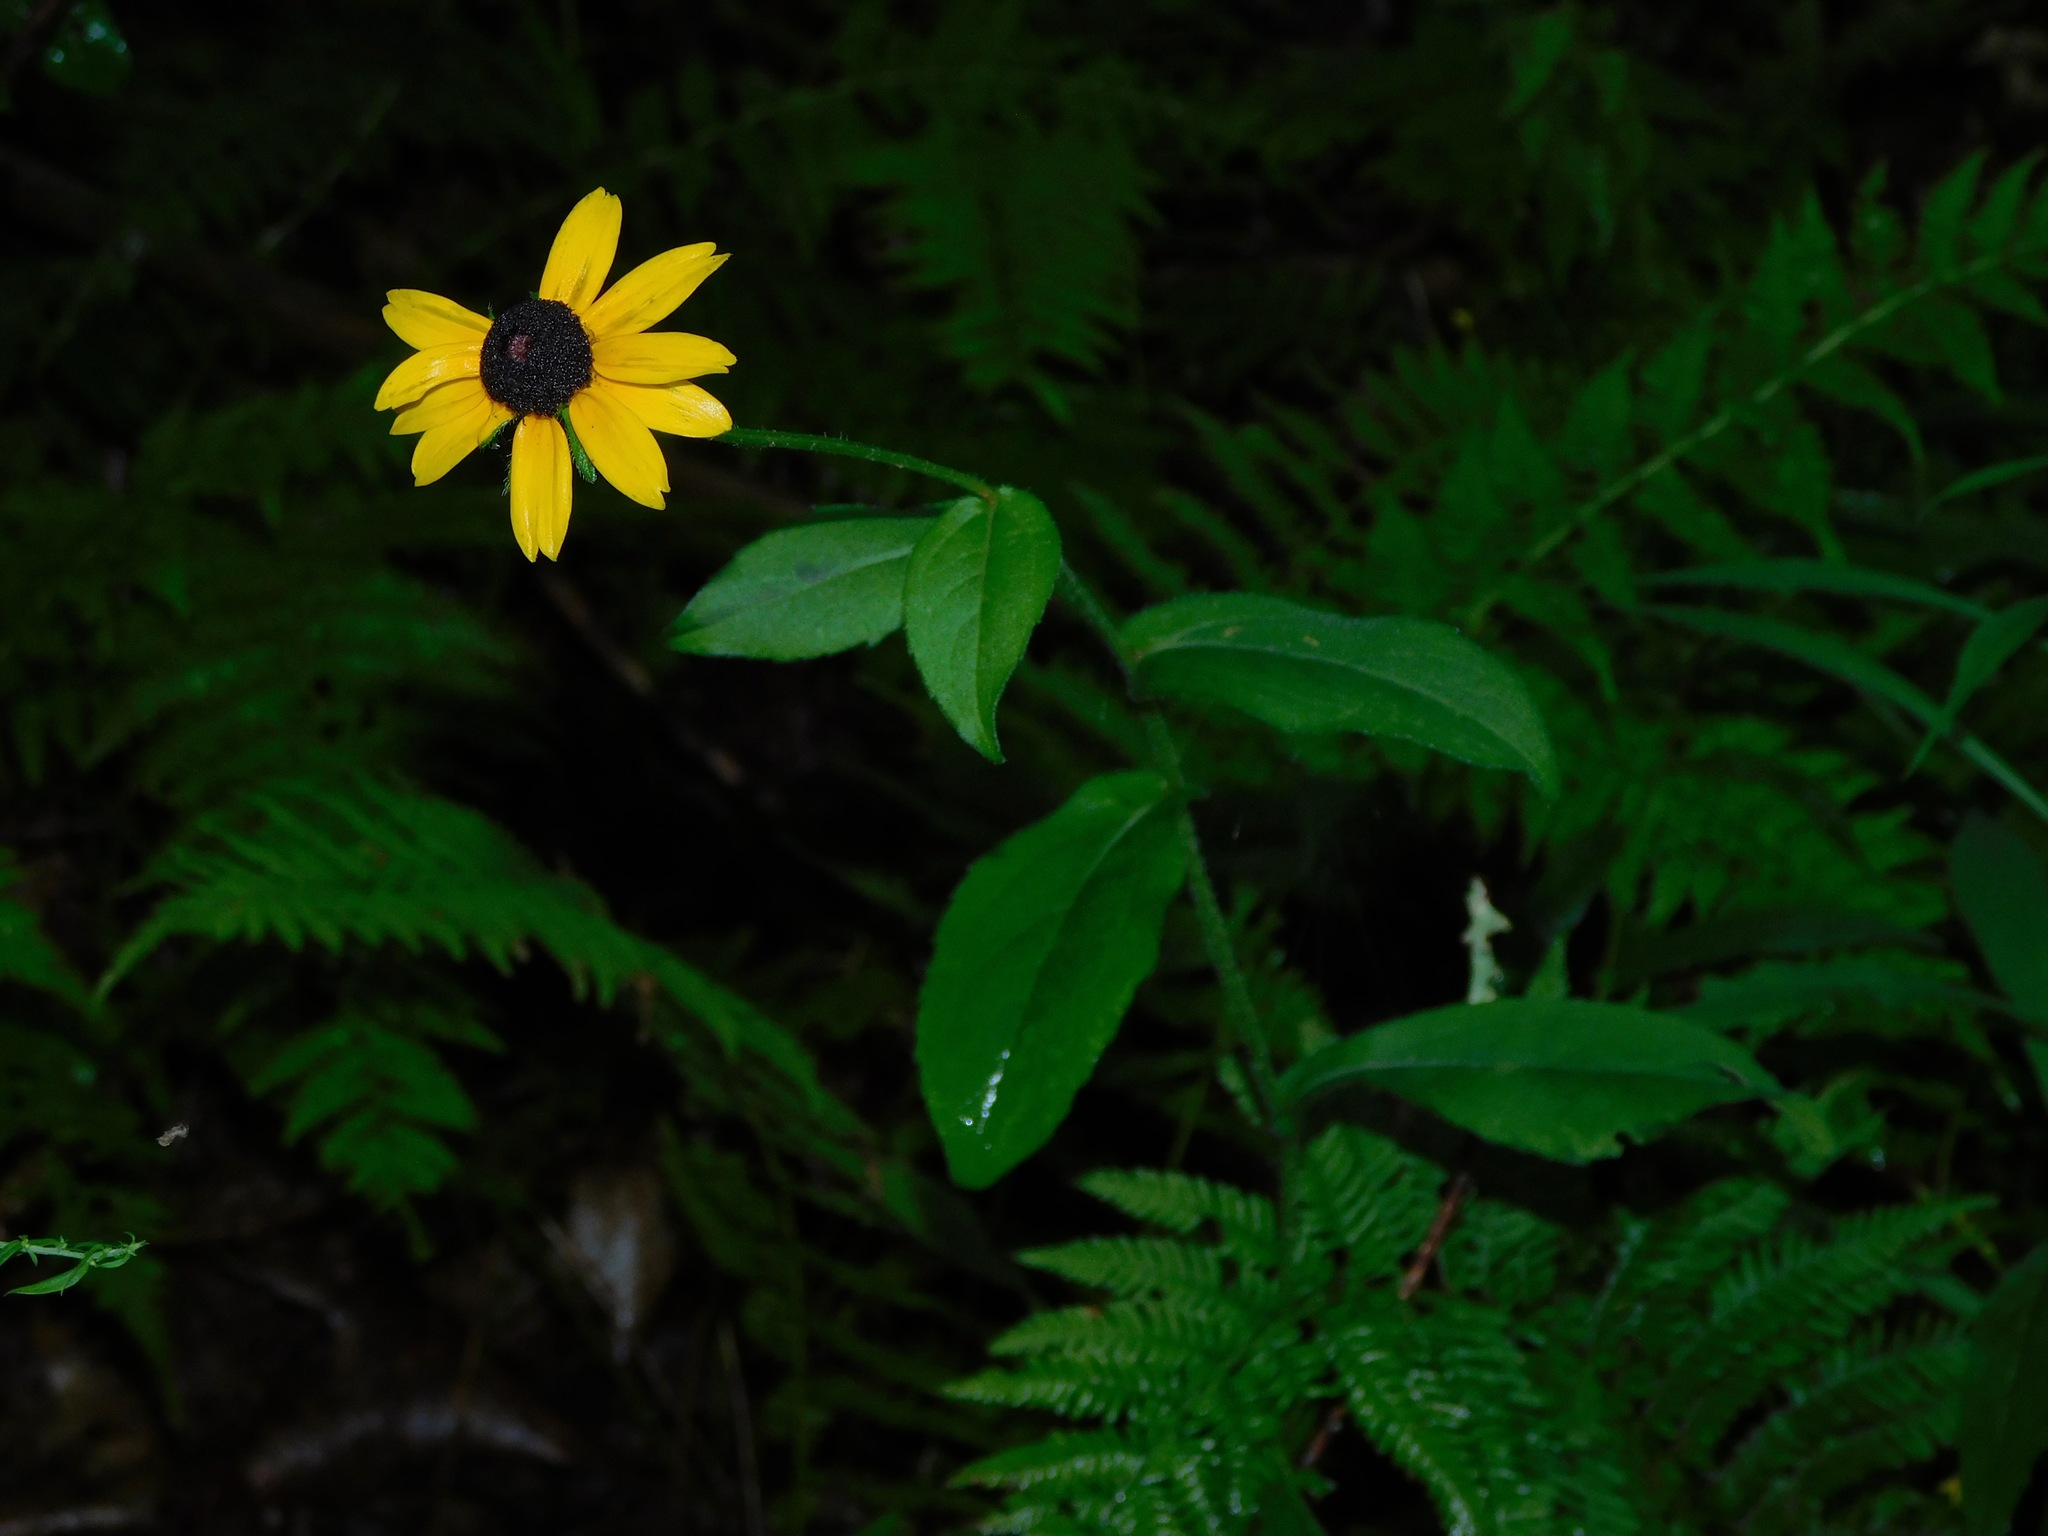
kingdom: Plantae
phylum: Tracheophyta
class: Magnoliopsida
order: Asterales
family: Asteraceae
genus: Rudbeckia
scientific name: Rudbeckia hirta
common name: Black-eyed-susan
